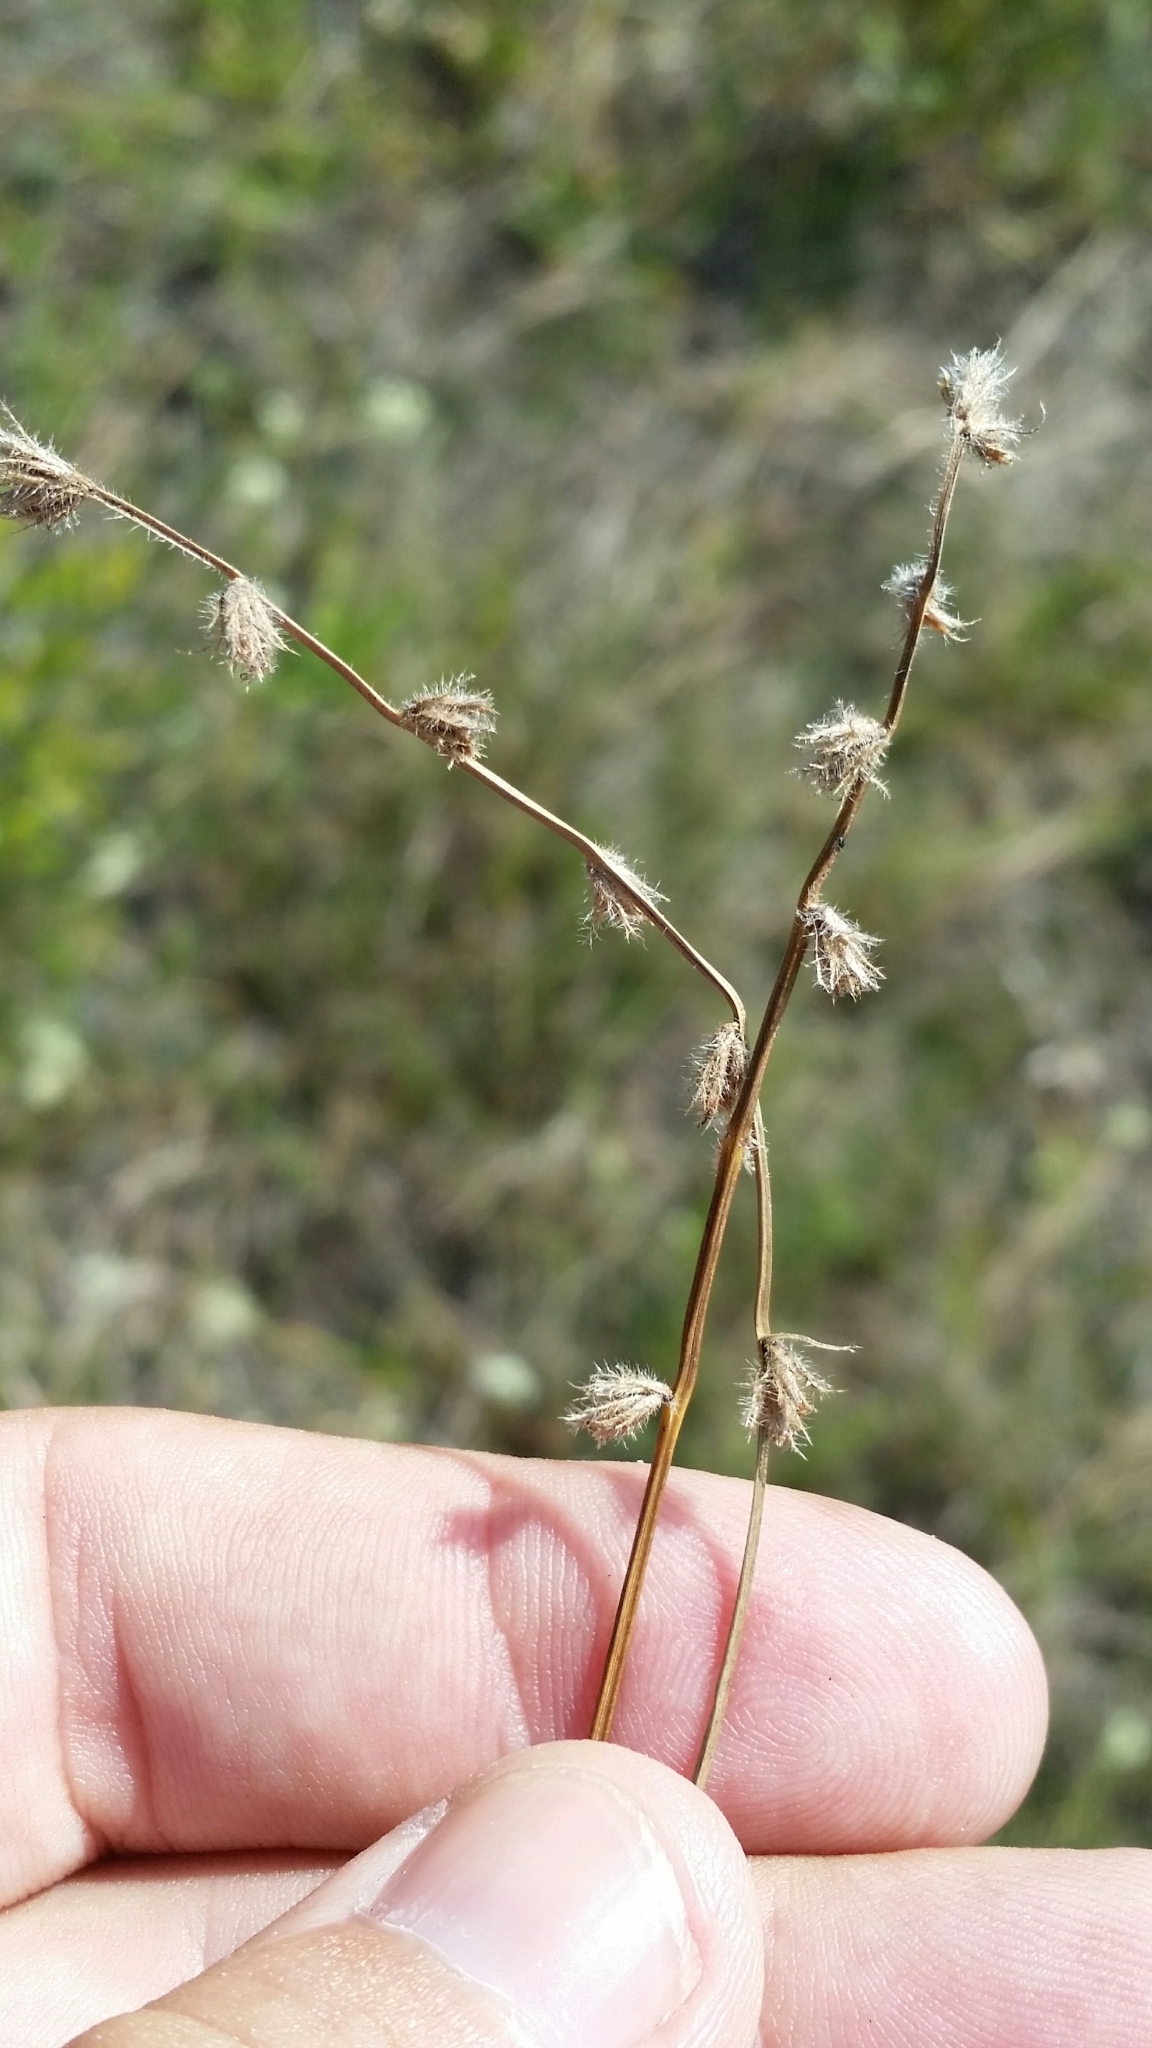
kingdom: Plantae
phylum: Tracheophyta
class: Liliopsida
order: Poales
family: Cyperaceae
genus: Scleria
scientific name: Scleria distans
